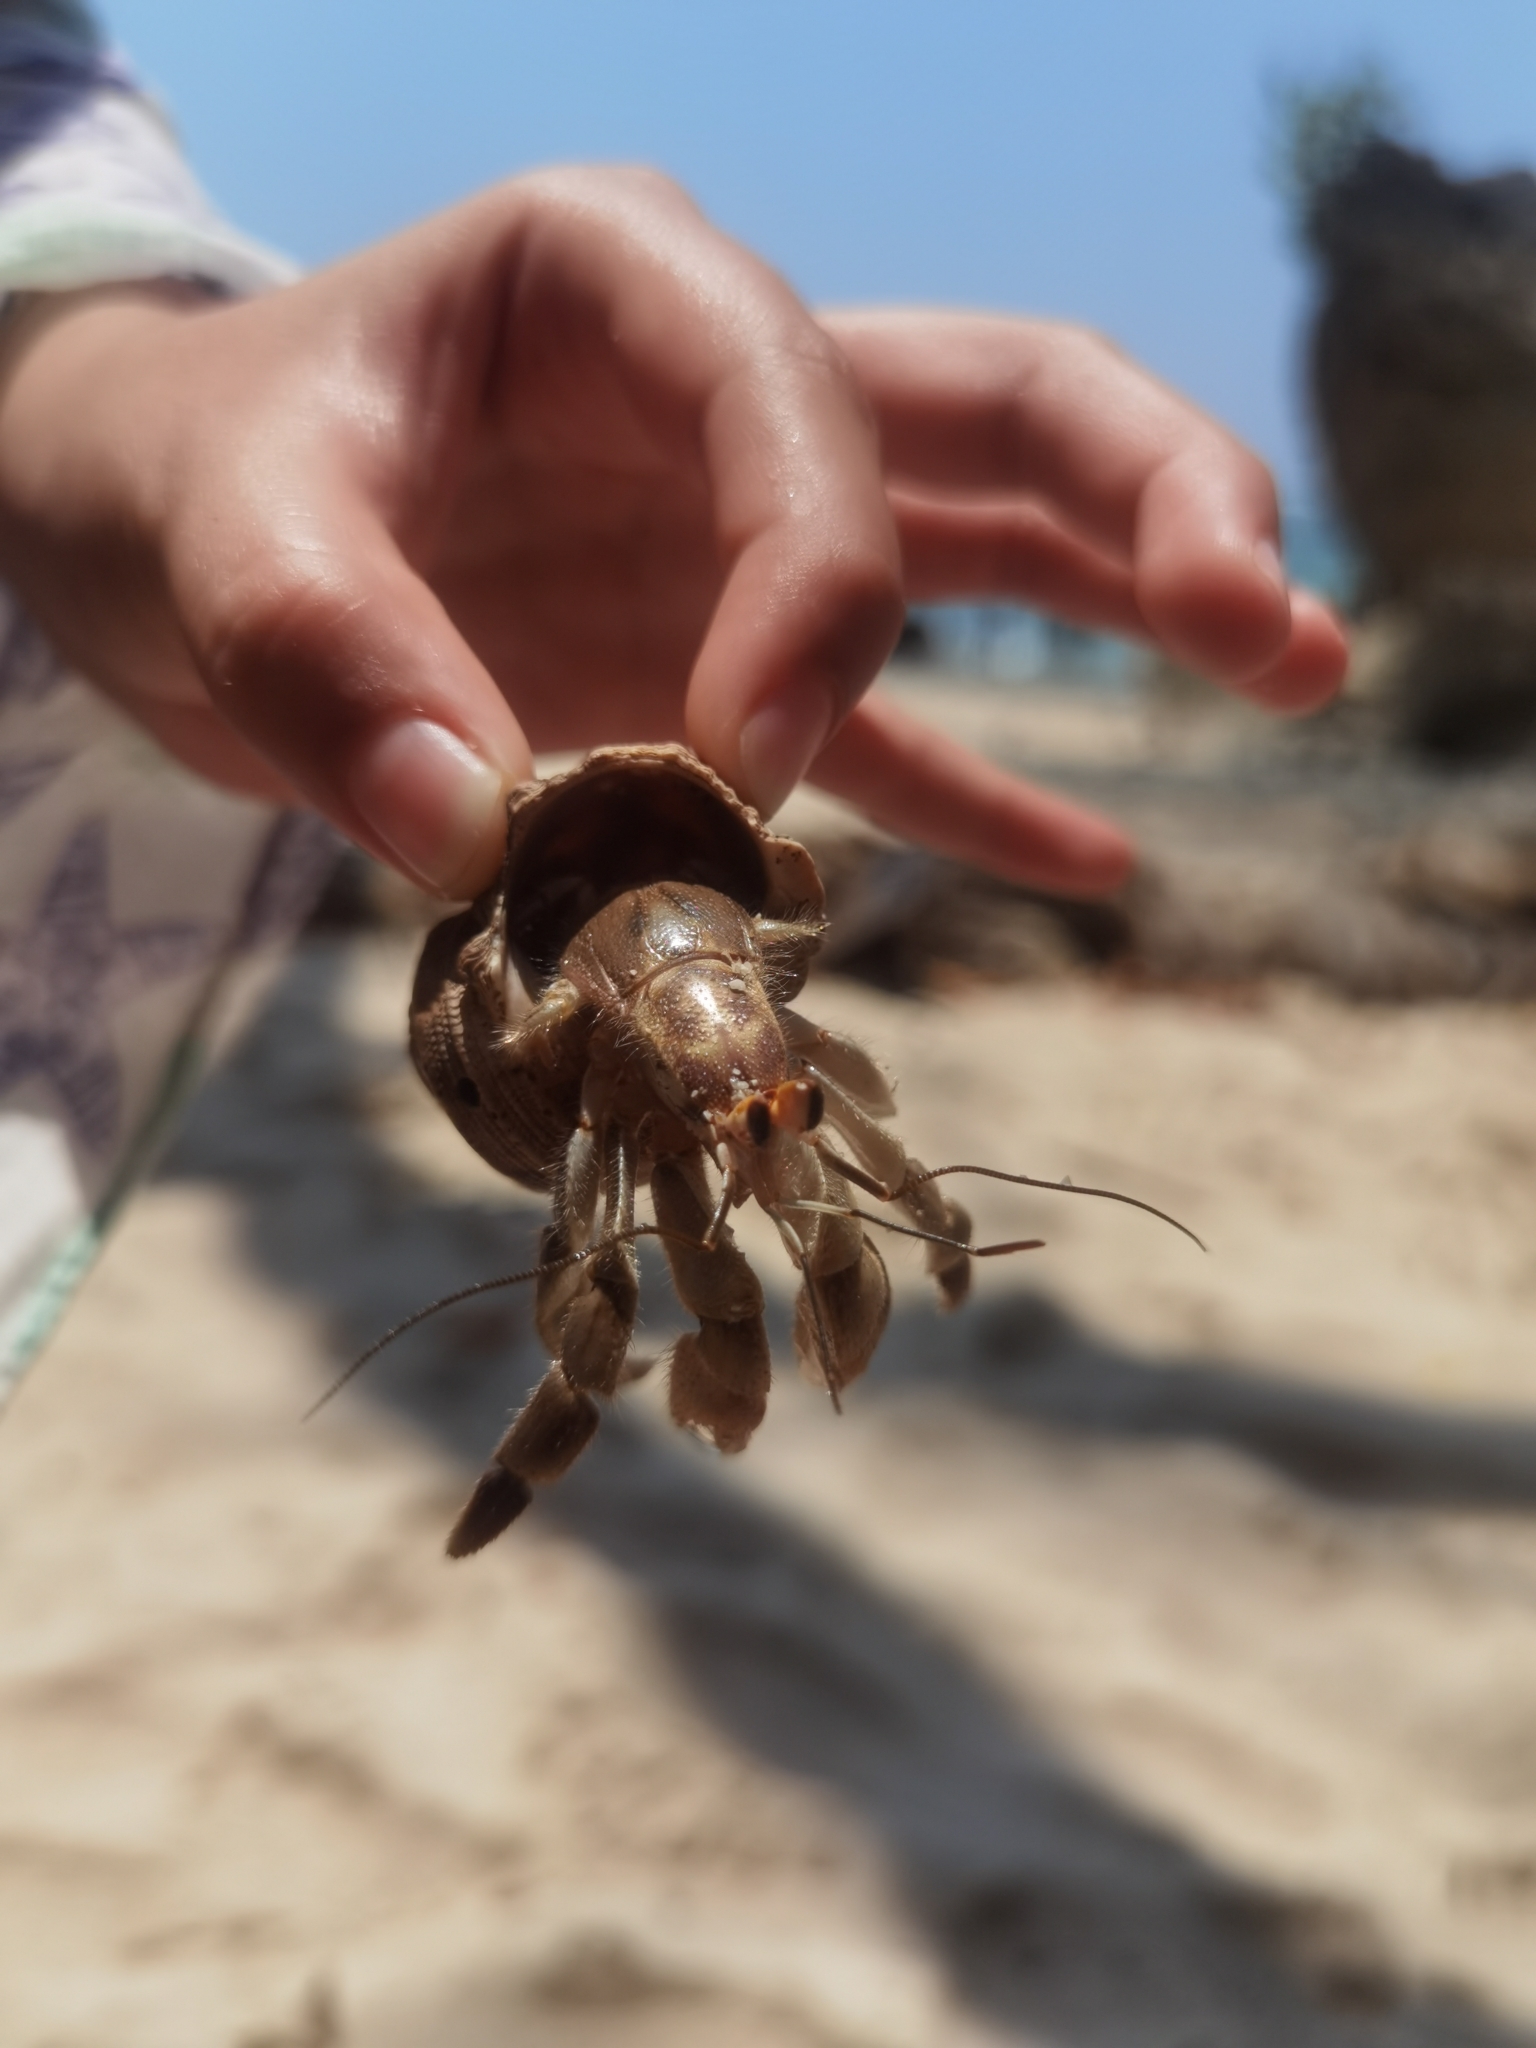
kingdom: Animalia
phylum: Arthropoda
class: Malacostraca
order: Decapoda
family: Coenobitidae
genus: Coenobita
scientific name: Coenobita compressus
